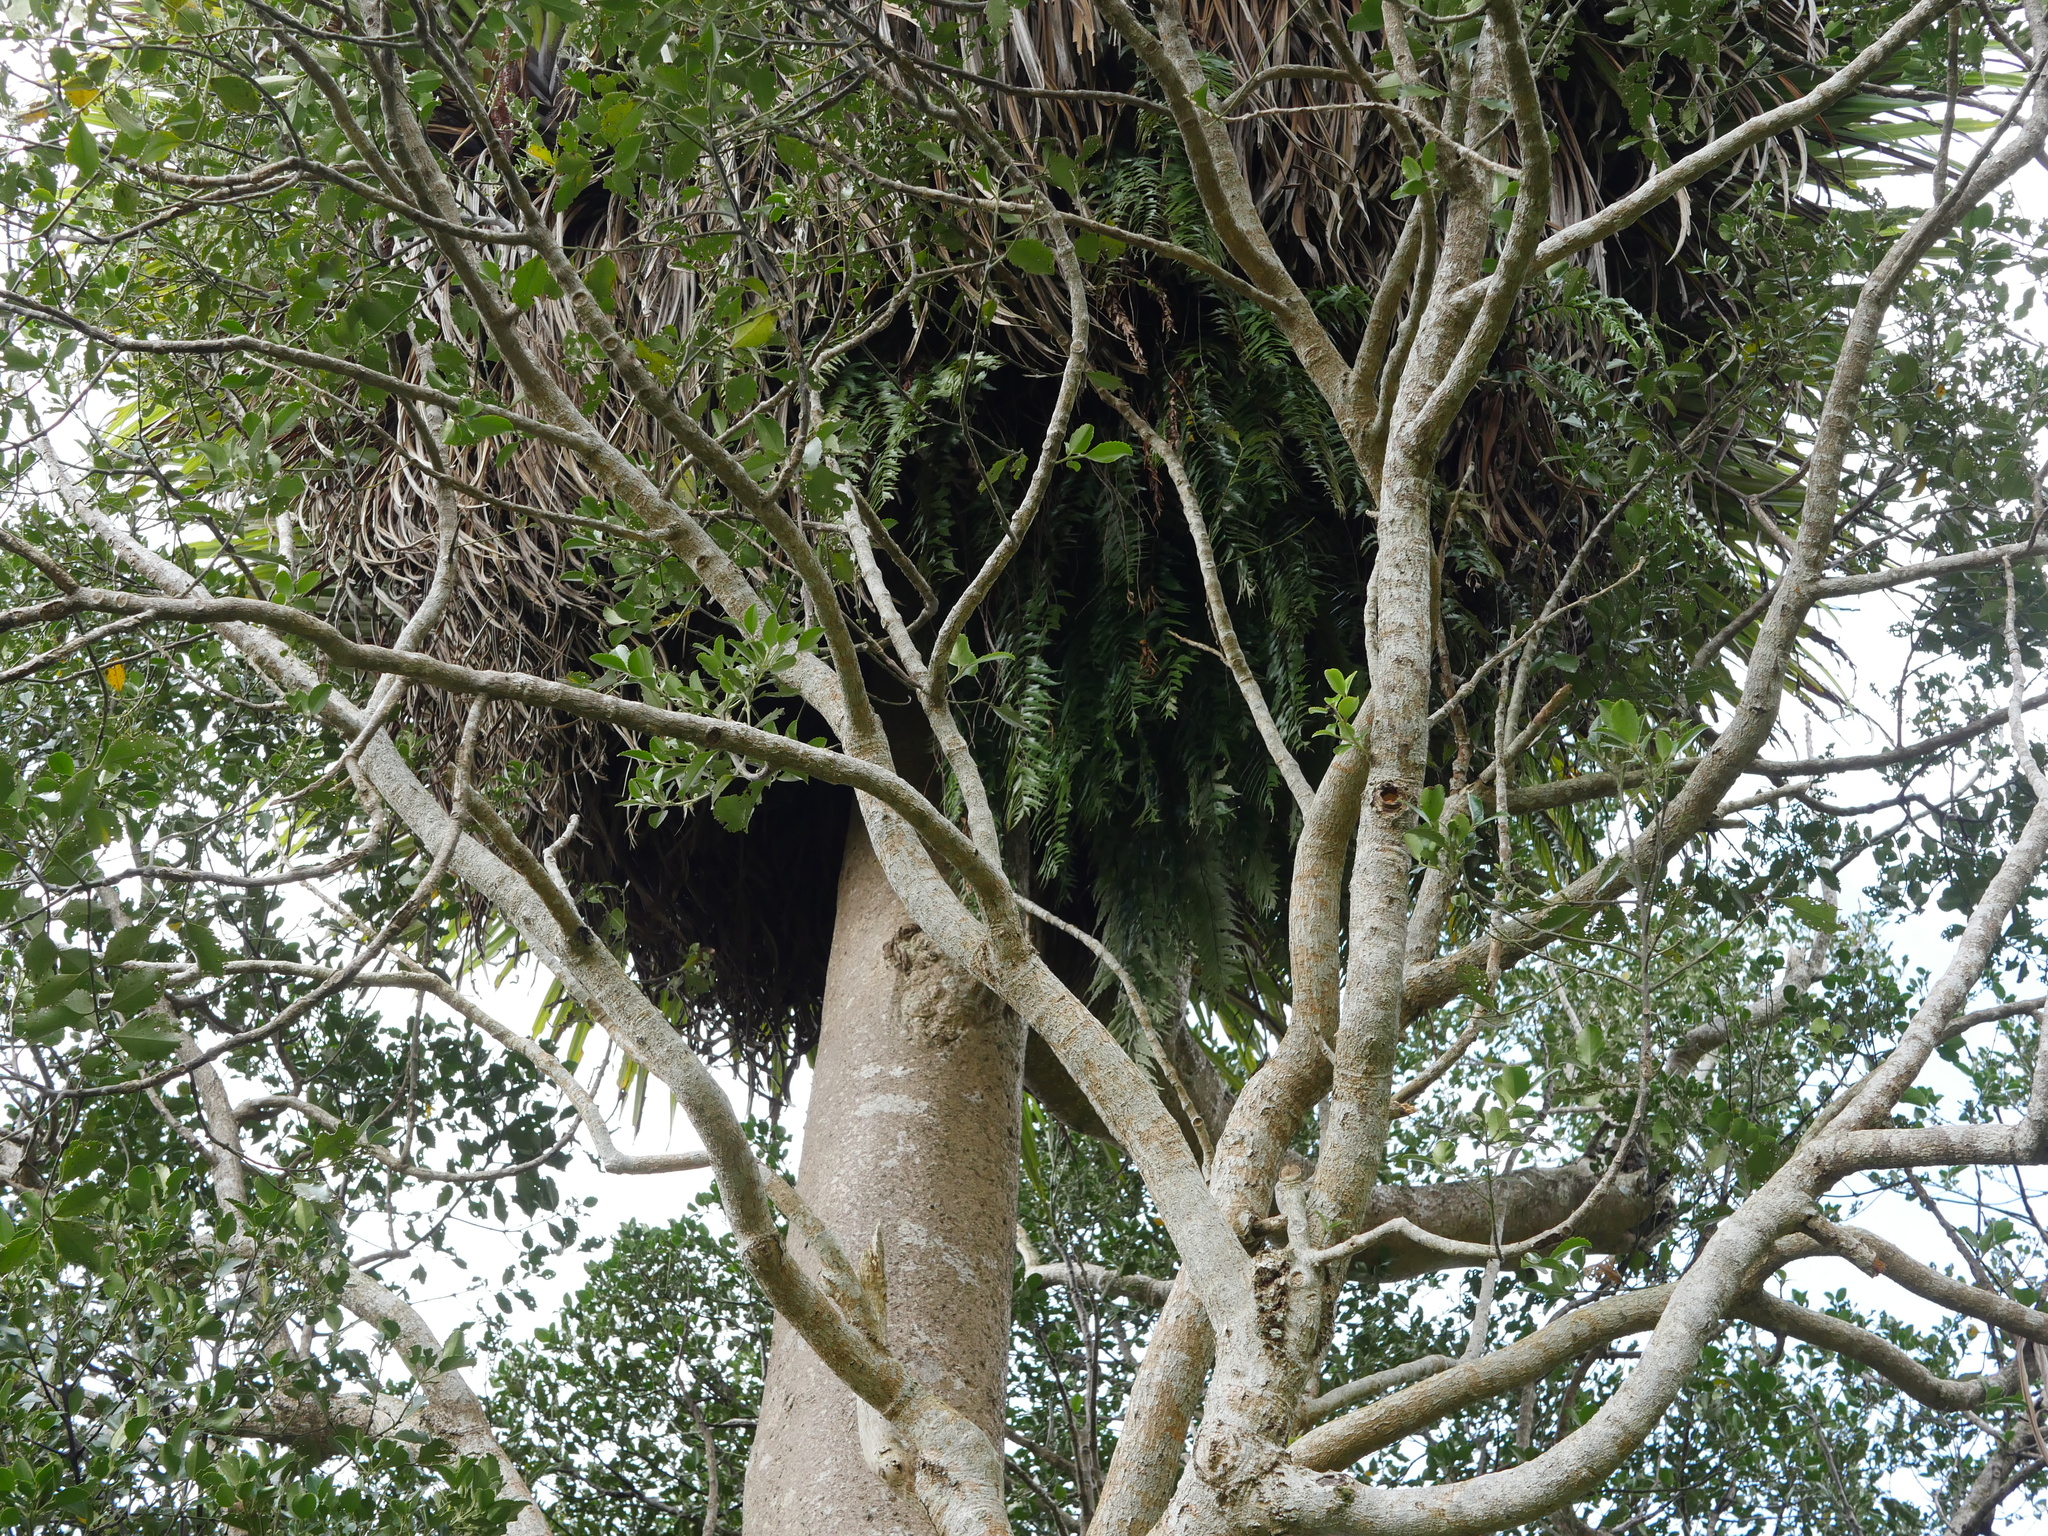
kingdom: Plantae
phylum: Tracheophyta
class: Polypodiopsida
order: Polypodiales
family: Aspleniaceae
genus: Asplenium
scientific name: Asplenium polyodon
